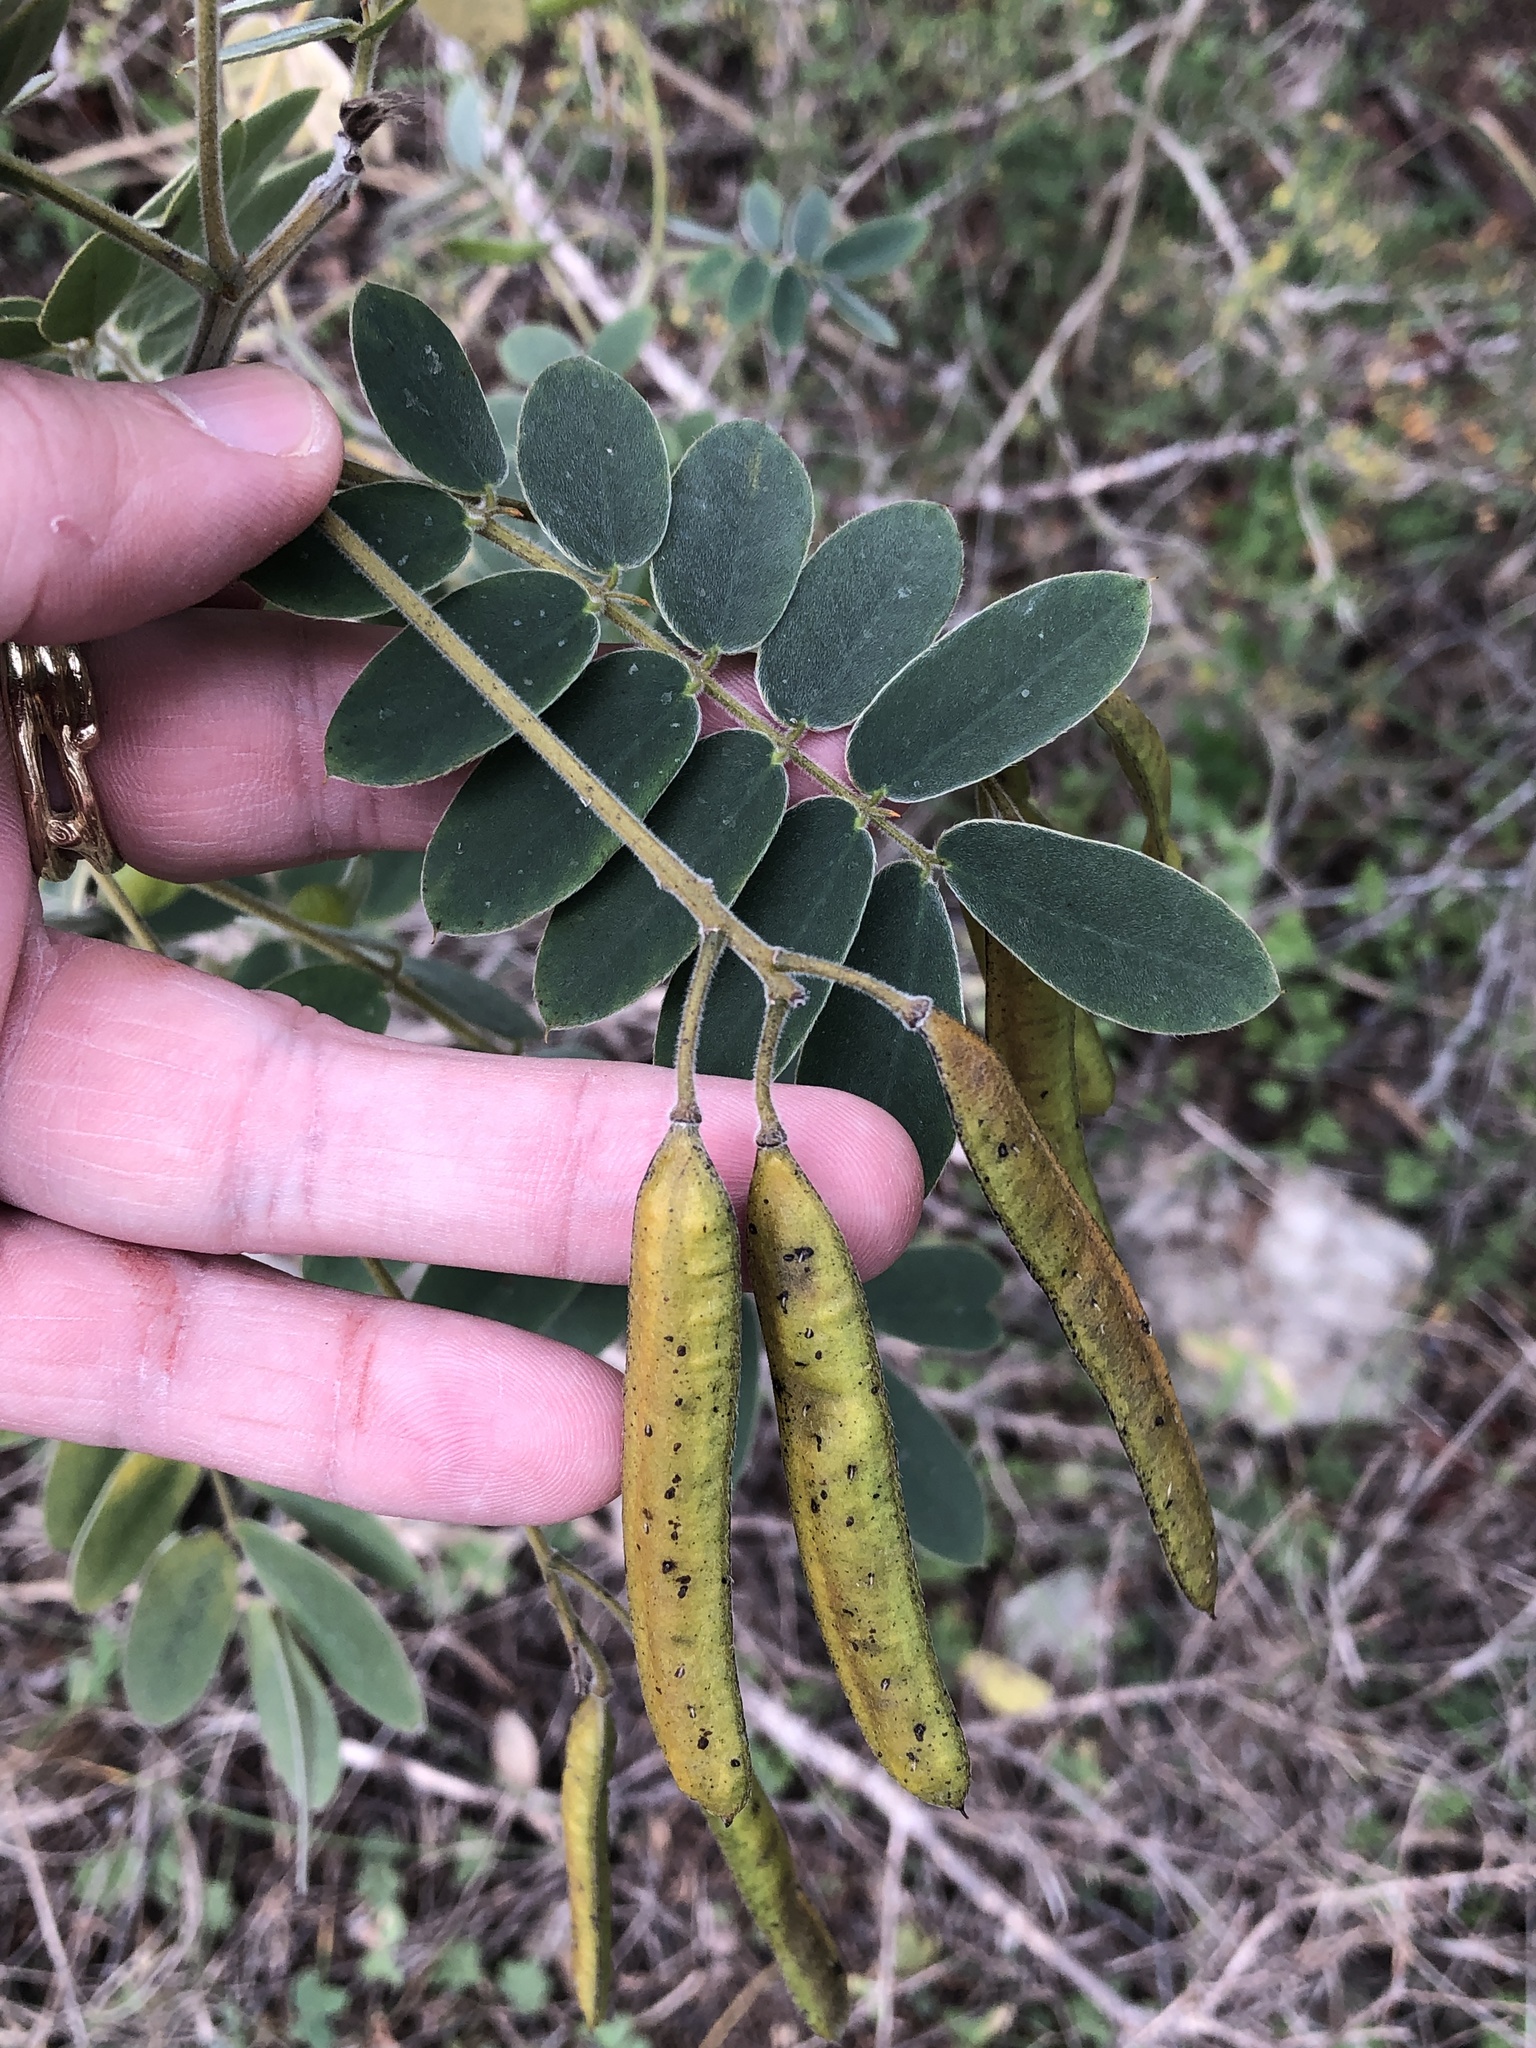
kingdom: Plantae
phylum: Tracheophyta
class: Magnoliopsida
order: Fabales
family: Fabaceae
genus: Senna
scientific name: Senna lindheimeriana
